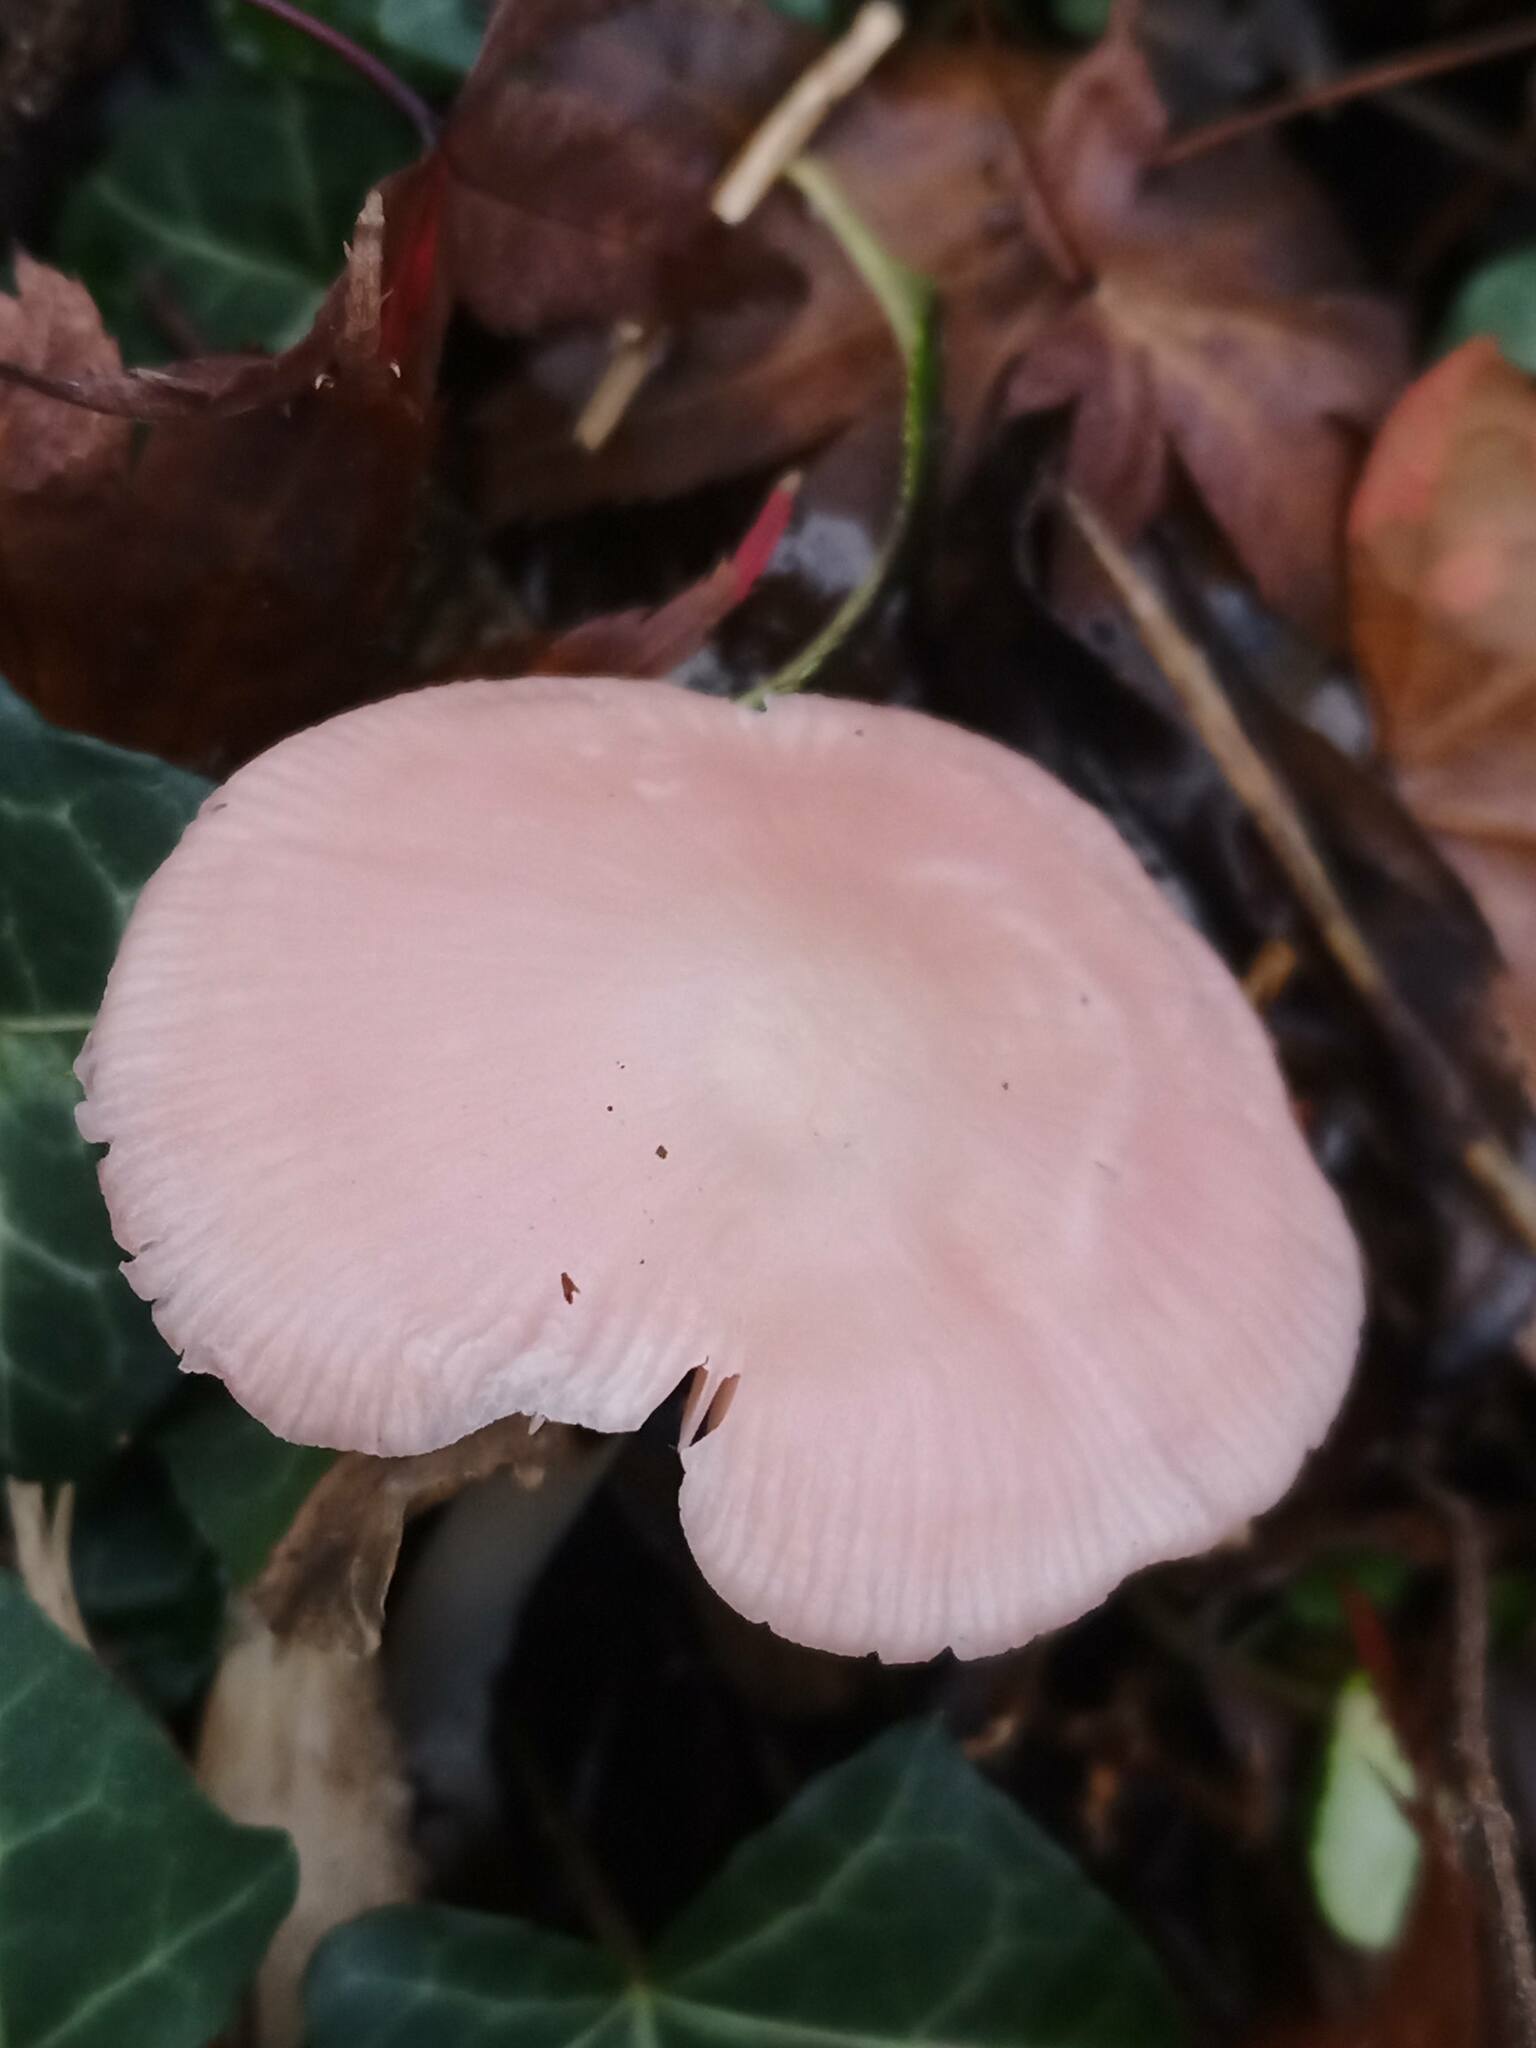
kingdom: Fungi
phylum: Basidiomycota
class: Agaricomycetes
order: Agaricales
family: Mycenaceae
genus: Mycena
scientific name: Mycena rosea
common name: Rosy bonnet
